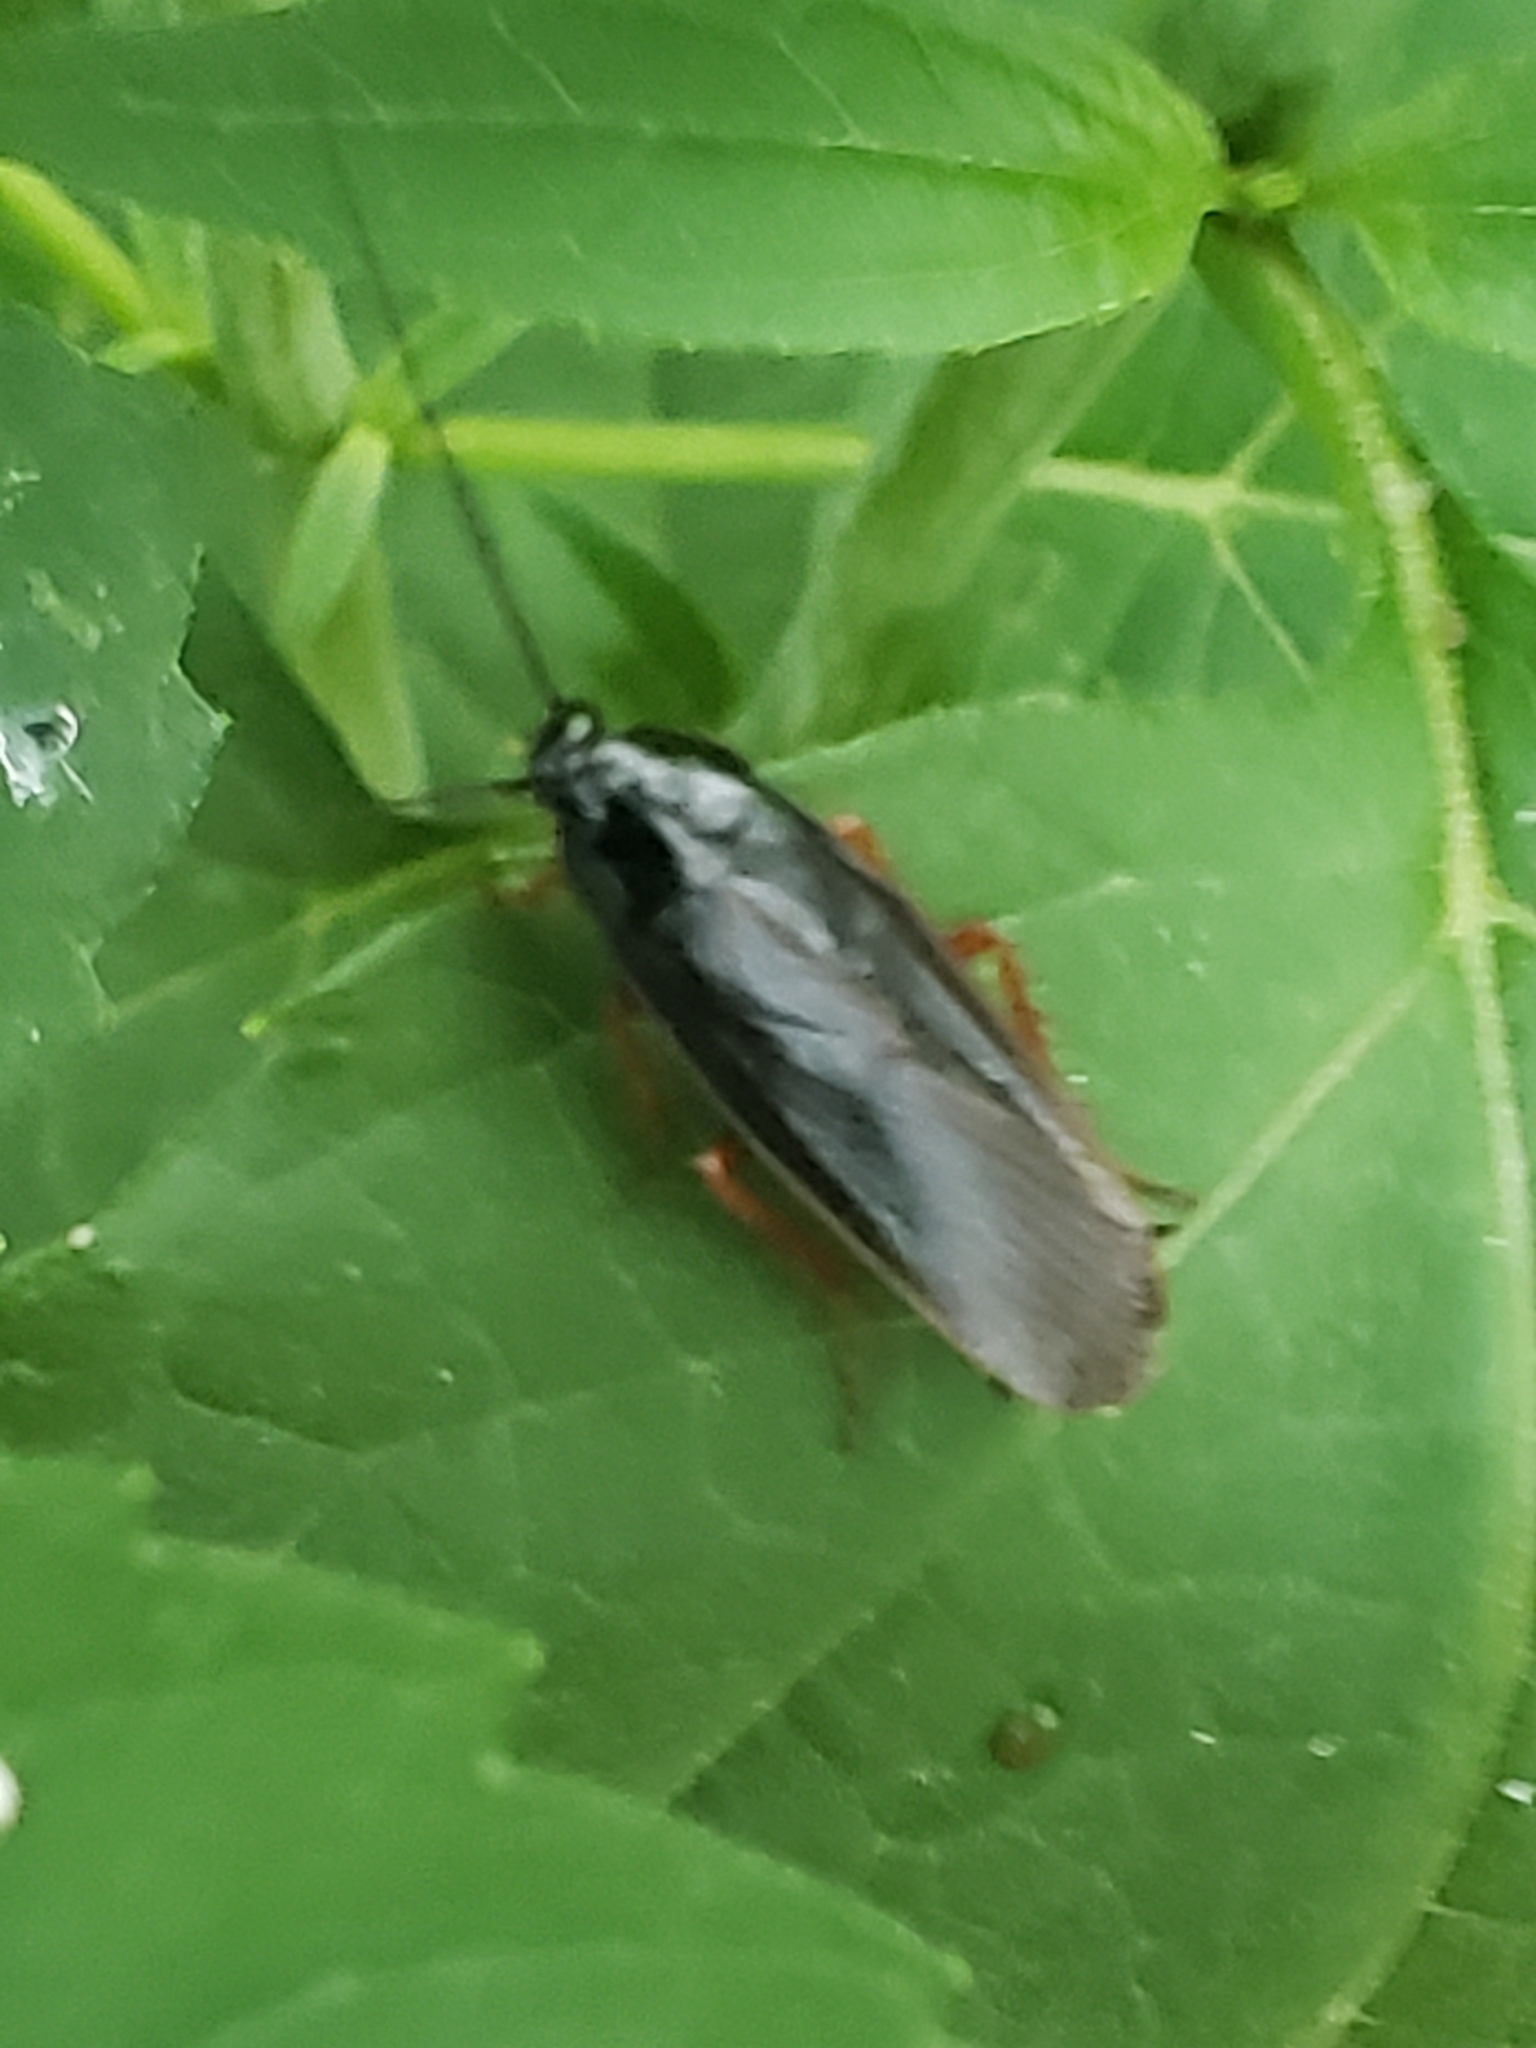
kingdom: Animalia
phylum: Arthropoda
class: Insecta
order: Blattodea
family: Ectobiidae
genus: Ischnoptera
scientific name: Ischnoptera deropeltiformis
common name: Dark wood cockroach
